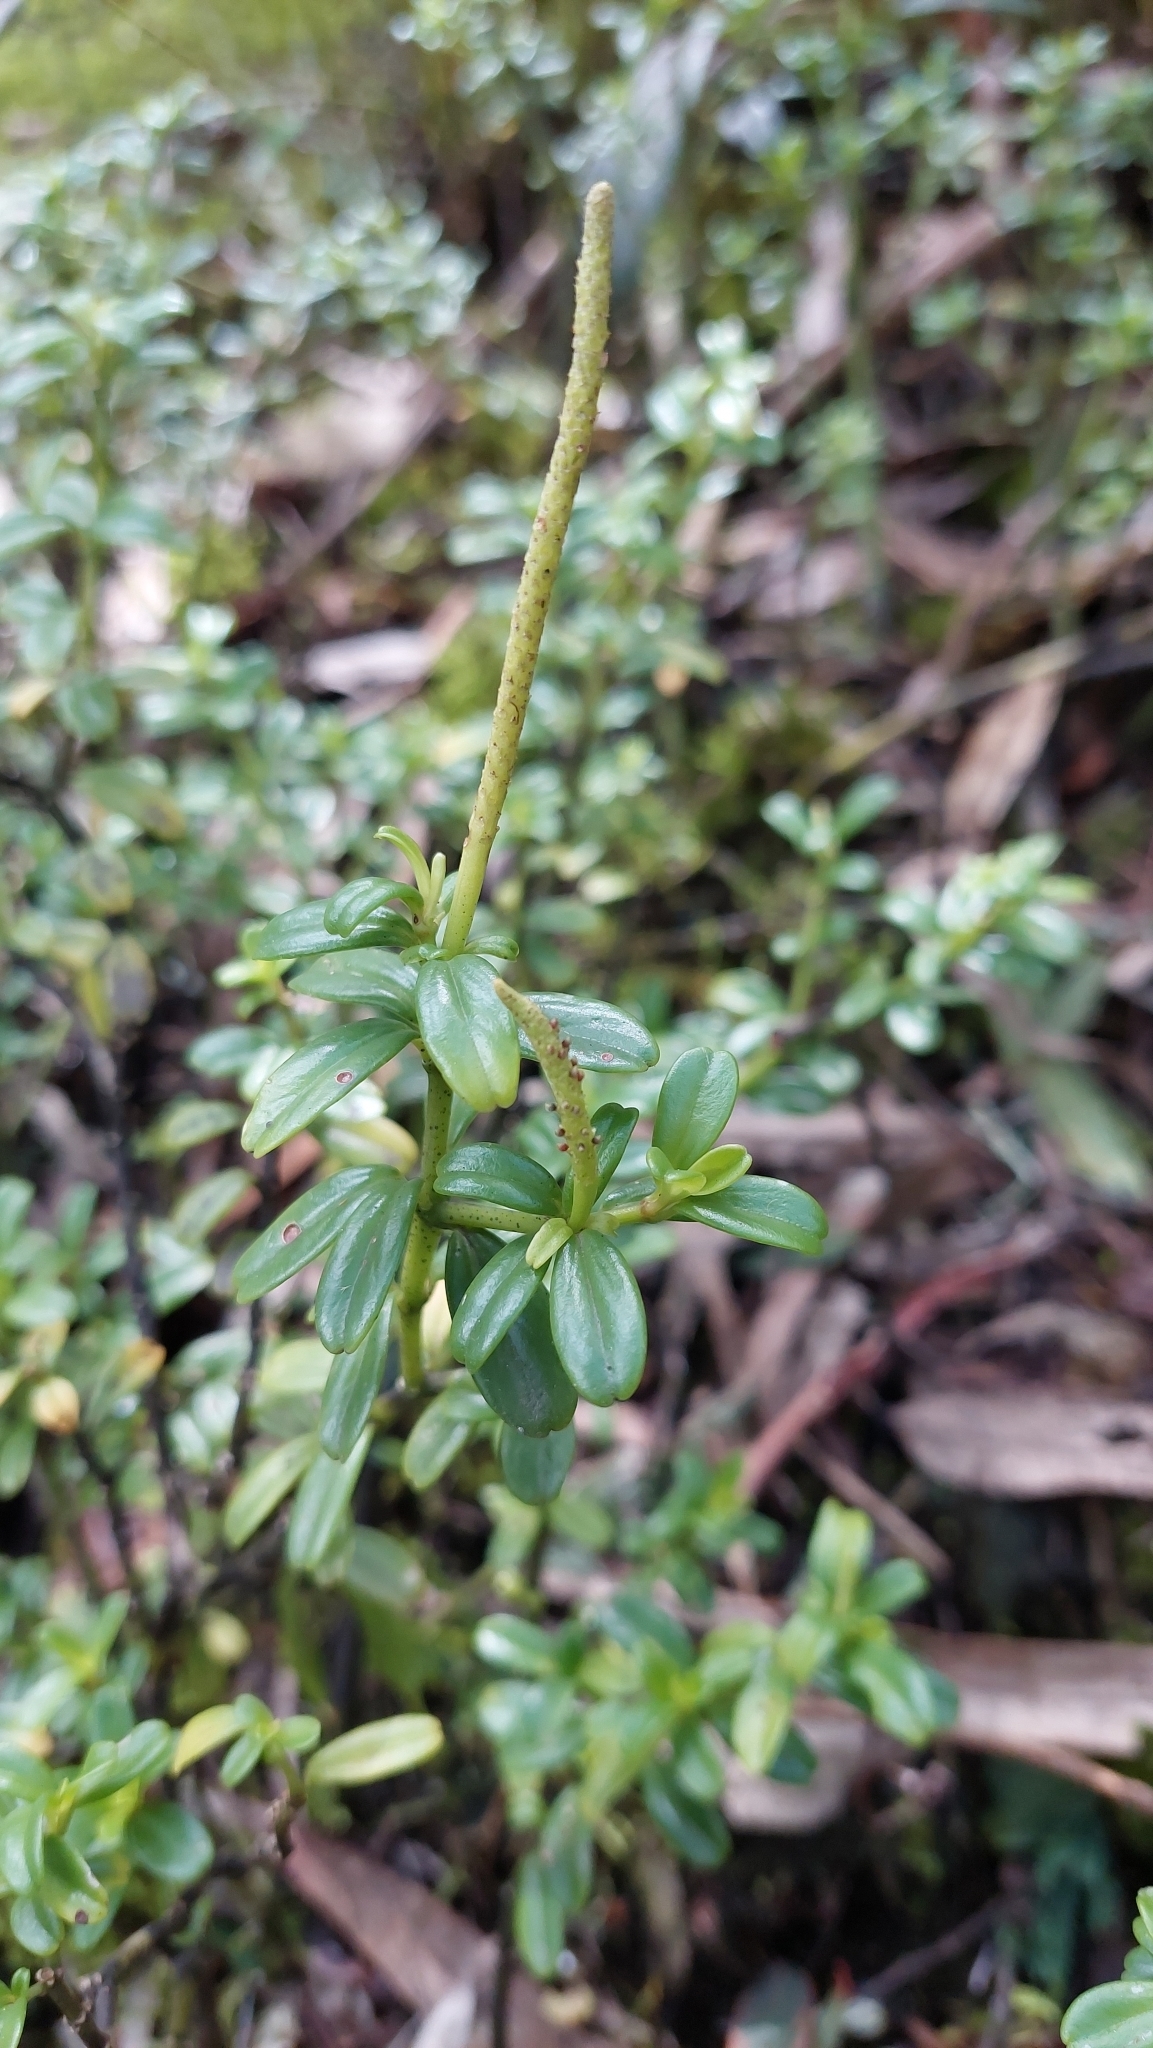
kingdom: Plantae
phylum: Tracheophyta
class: Magnoliopsida
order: Piperales
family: Piperaceae
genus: Peperomia
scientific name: Peperomia ilaloensis
